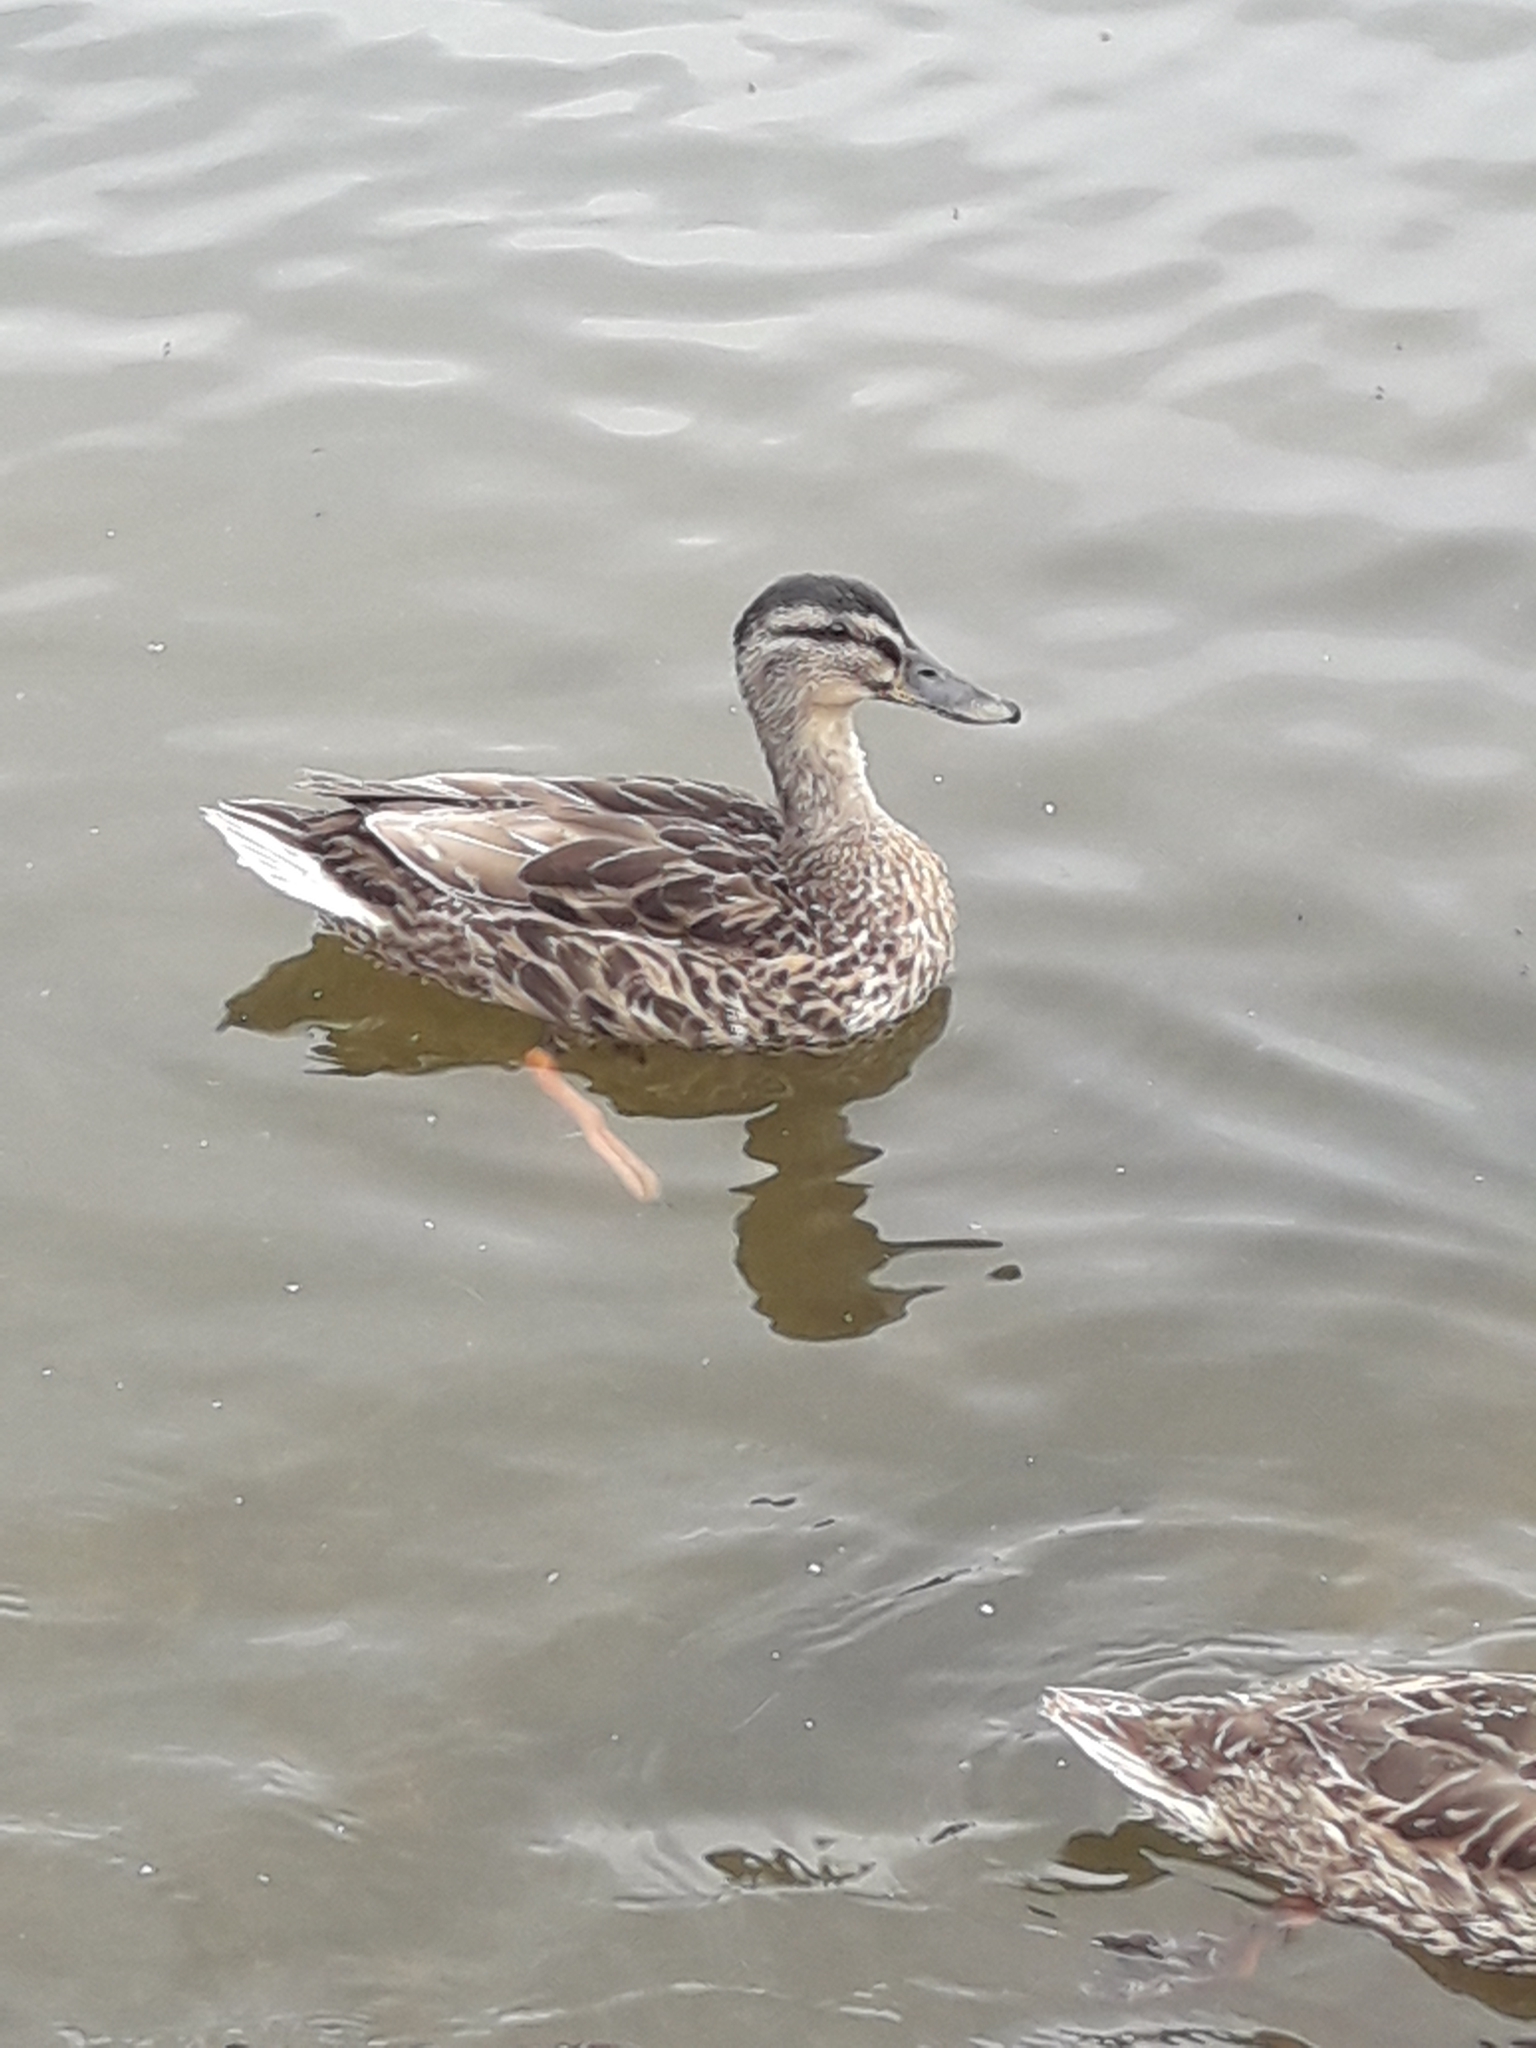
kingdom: Animalia
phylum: Chordata
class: Aves
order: Anseriformes
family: Anatidae
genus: Anas
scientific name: Anas platyrhynchos
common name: Mallard
